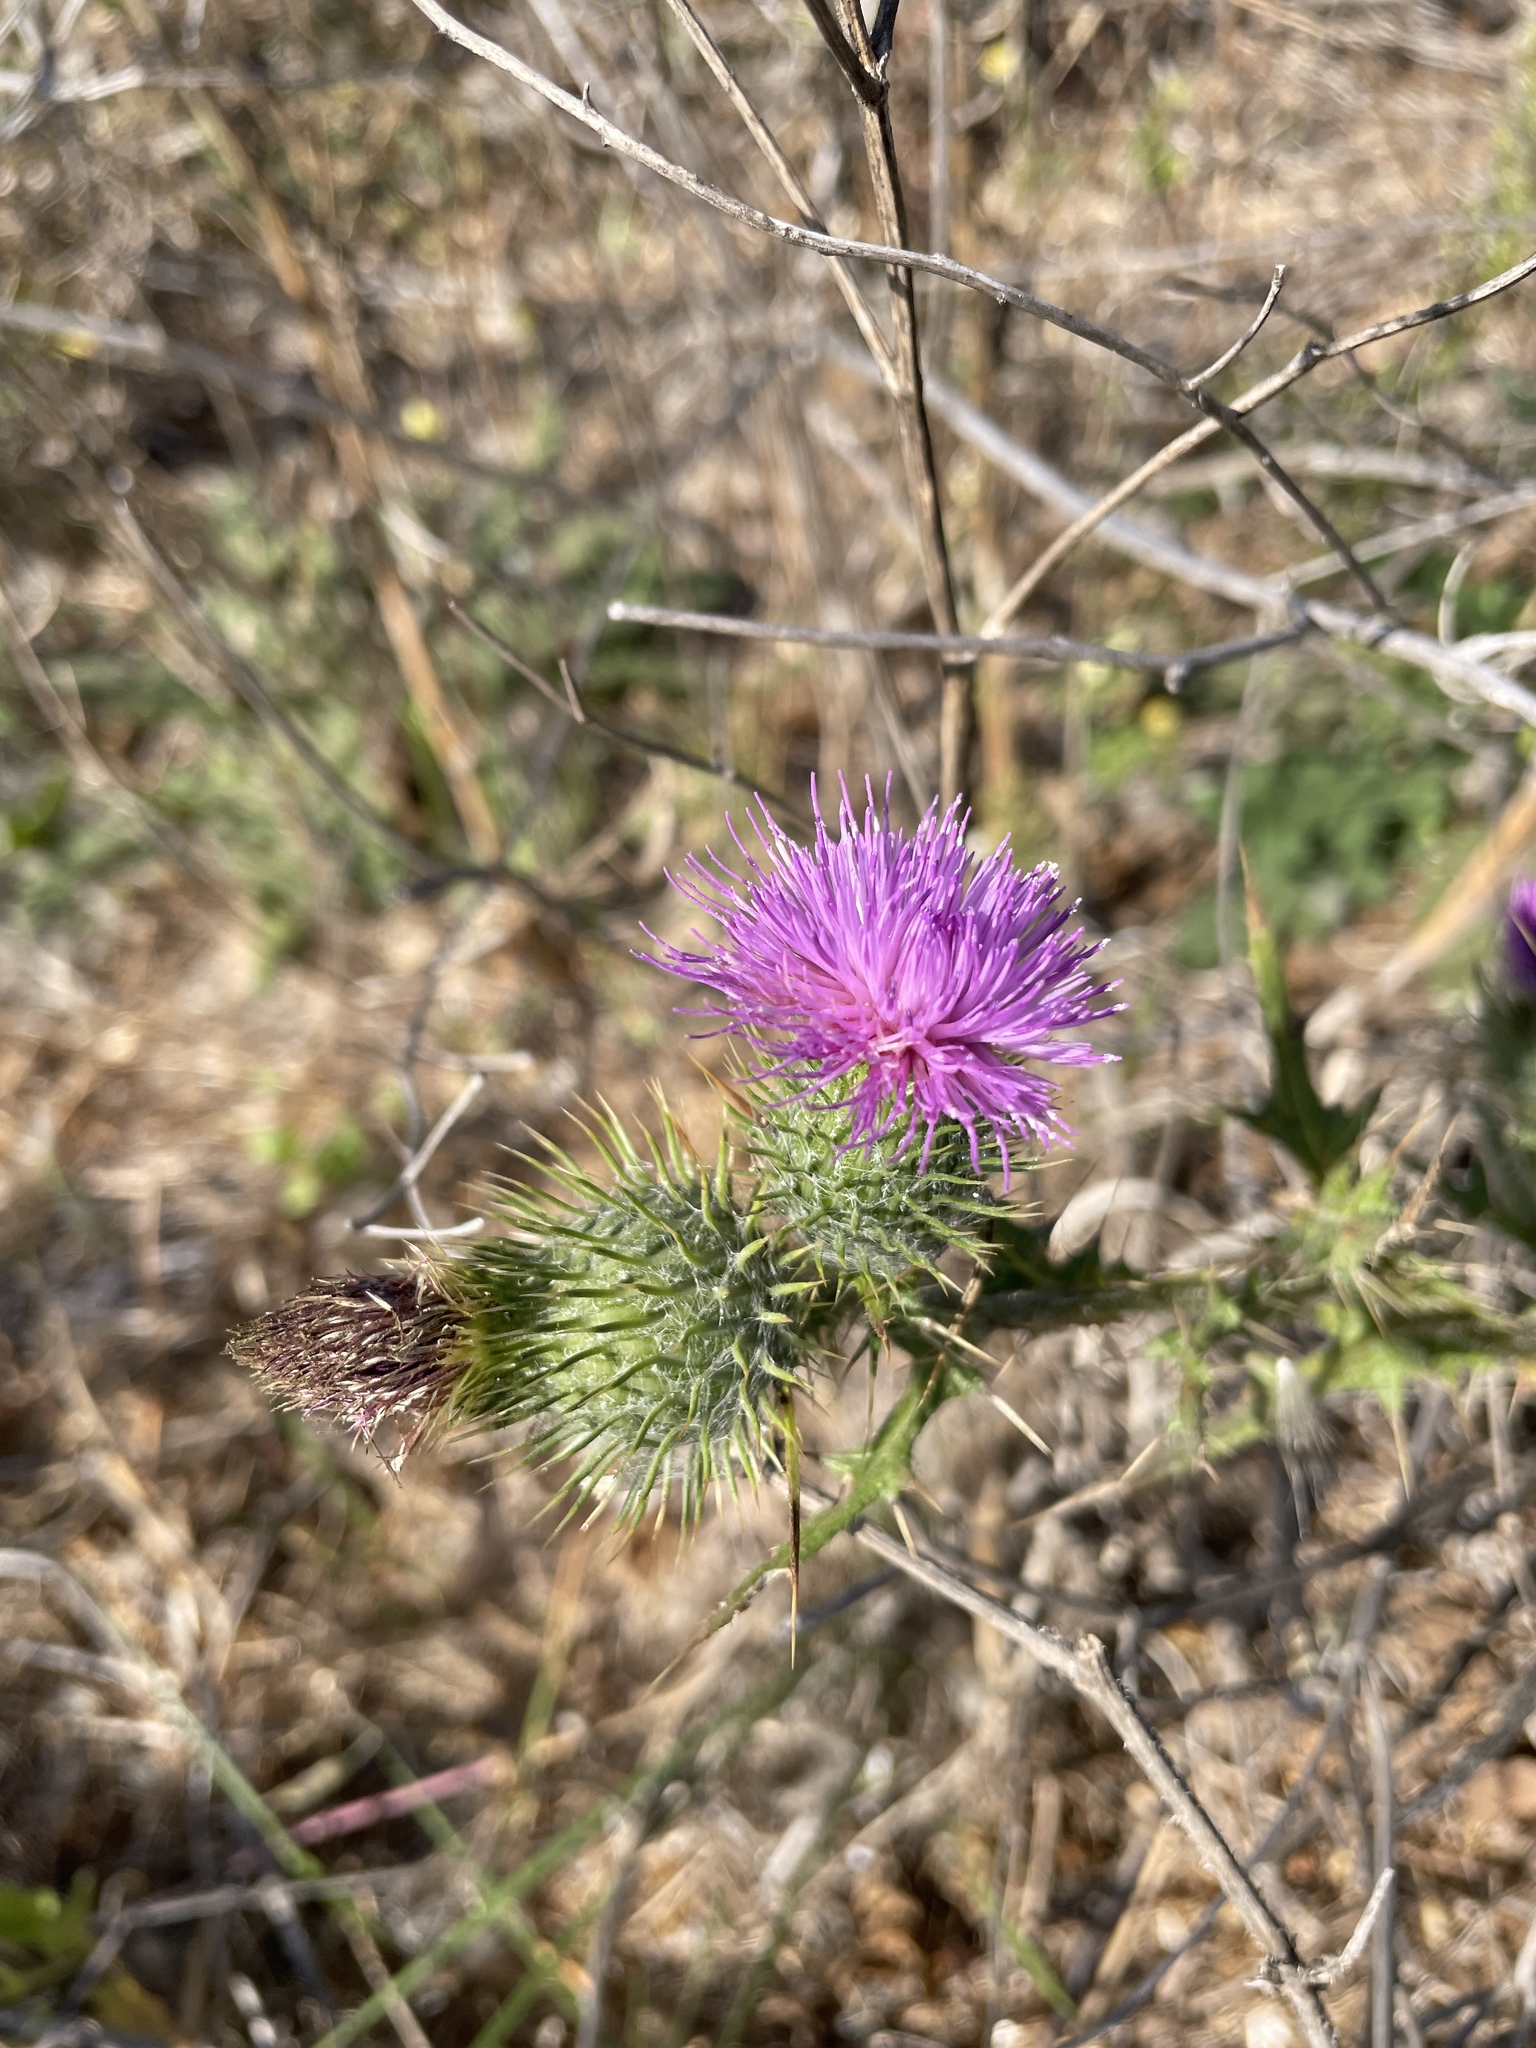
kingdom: Plantae
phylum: Tracheophyta
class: Magnoliopsida
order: Asterales
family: Asteraceae
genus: Cirsium
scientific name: Cirsium vulgare
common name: Bull thistle
